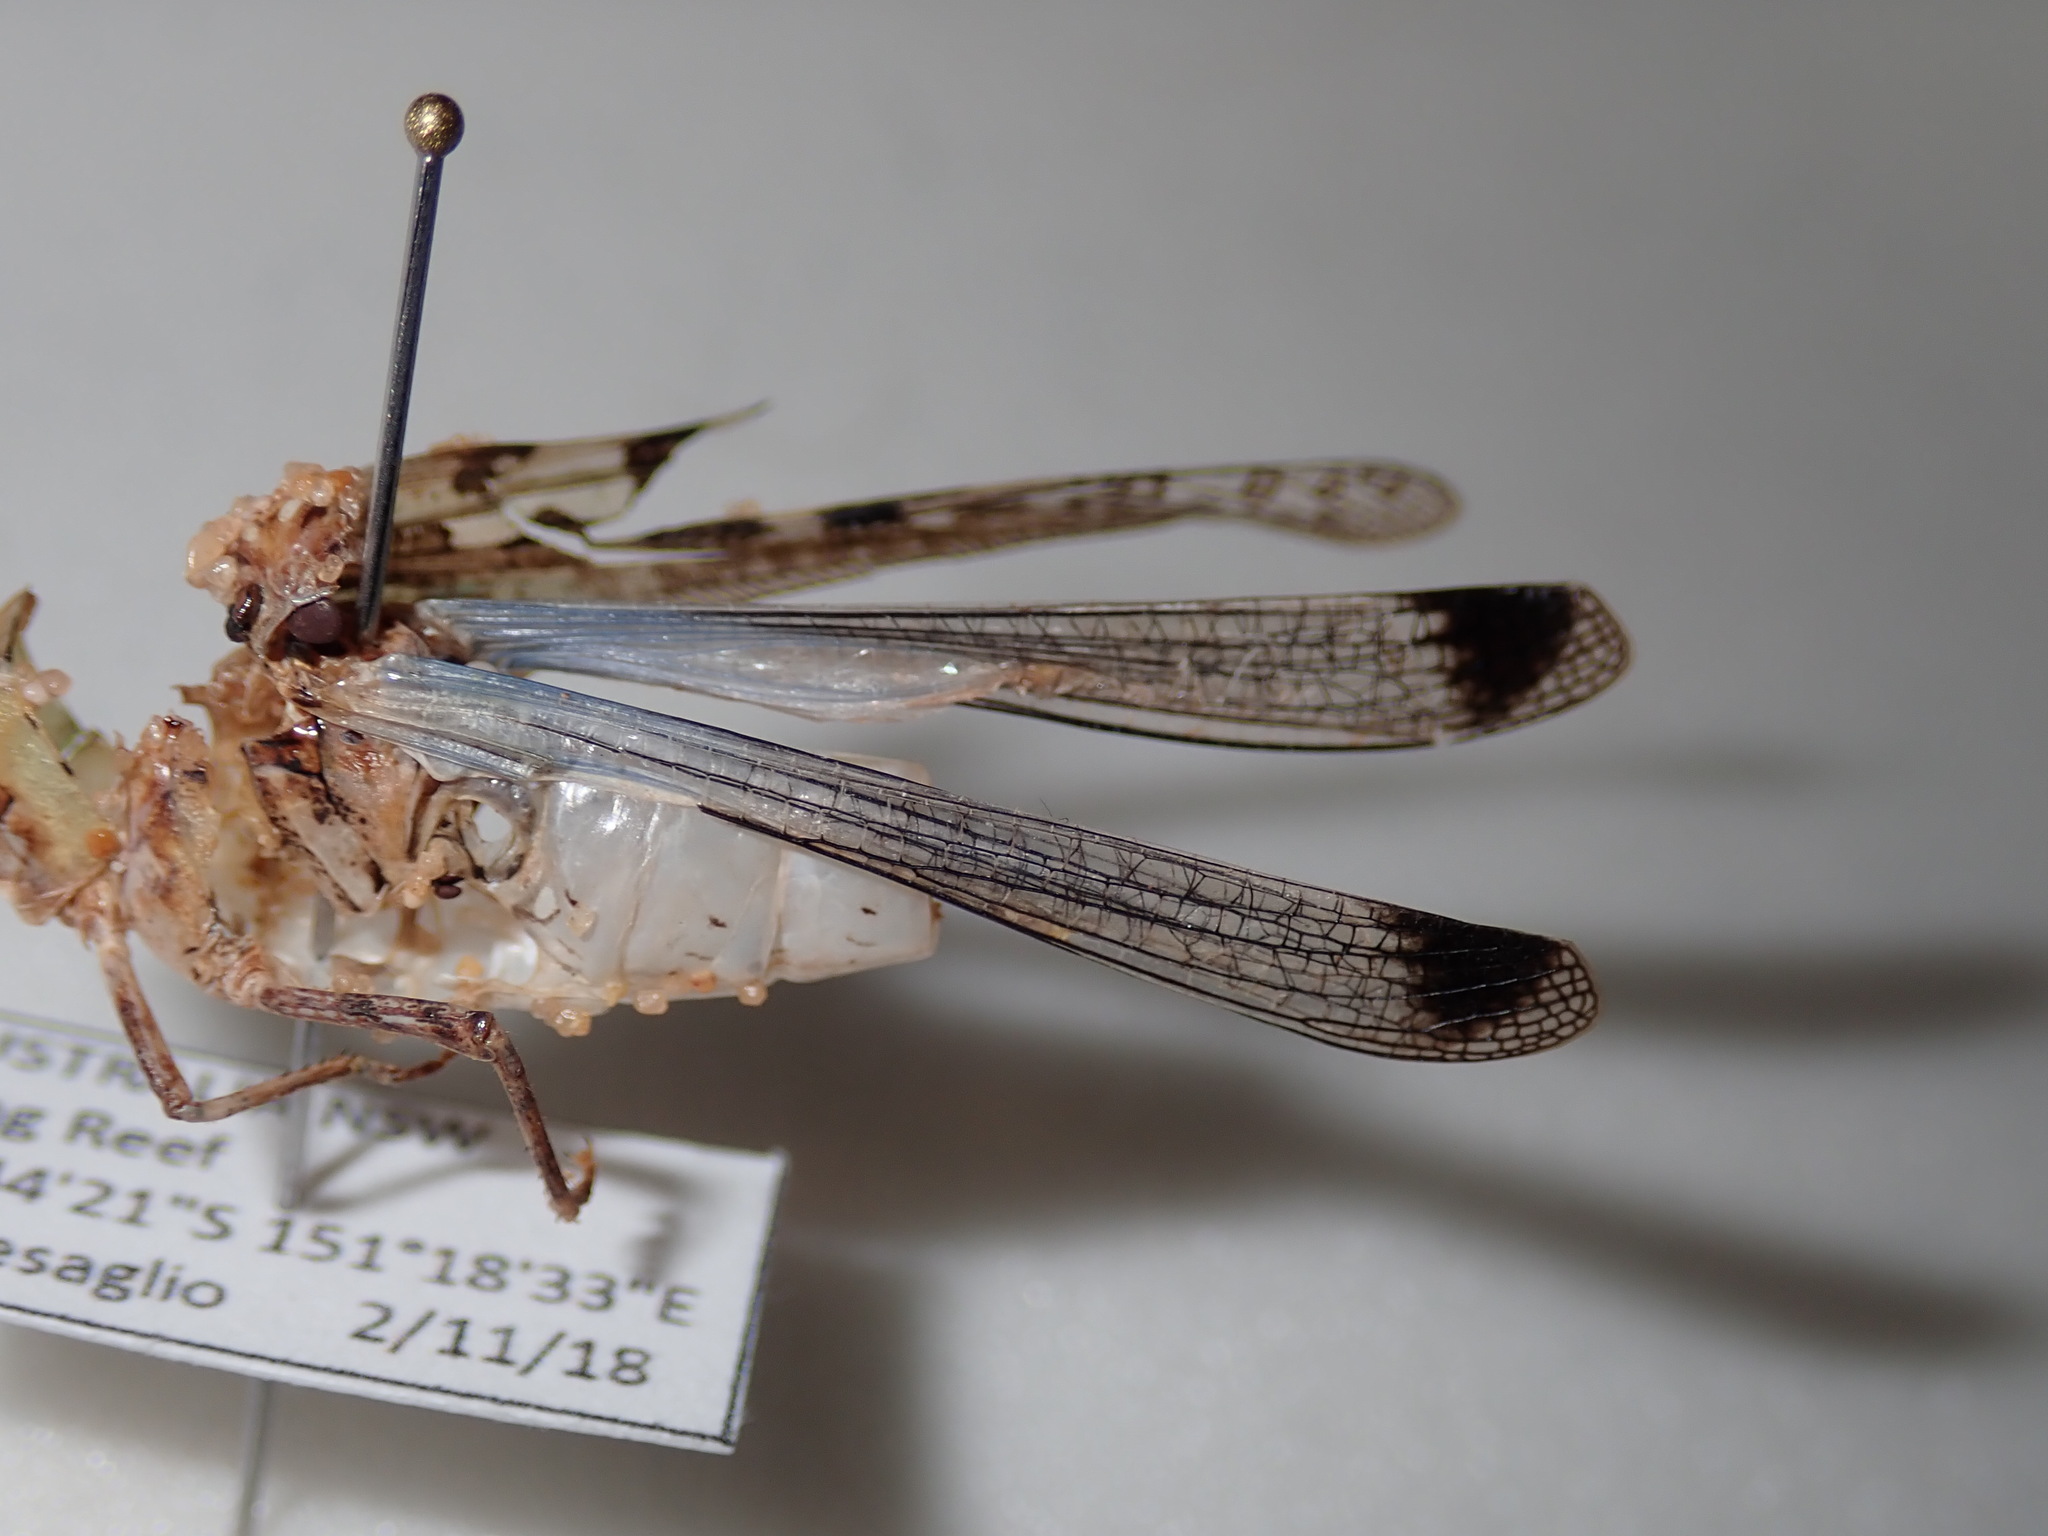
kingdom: Animalia
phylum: Arthropoda
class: Insecta
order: Orthoptera
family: Acrididae
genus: Chortoicetes
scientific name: Chortoicetes terminifera
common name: Australian plague locust
